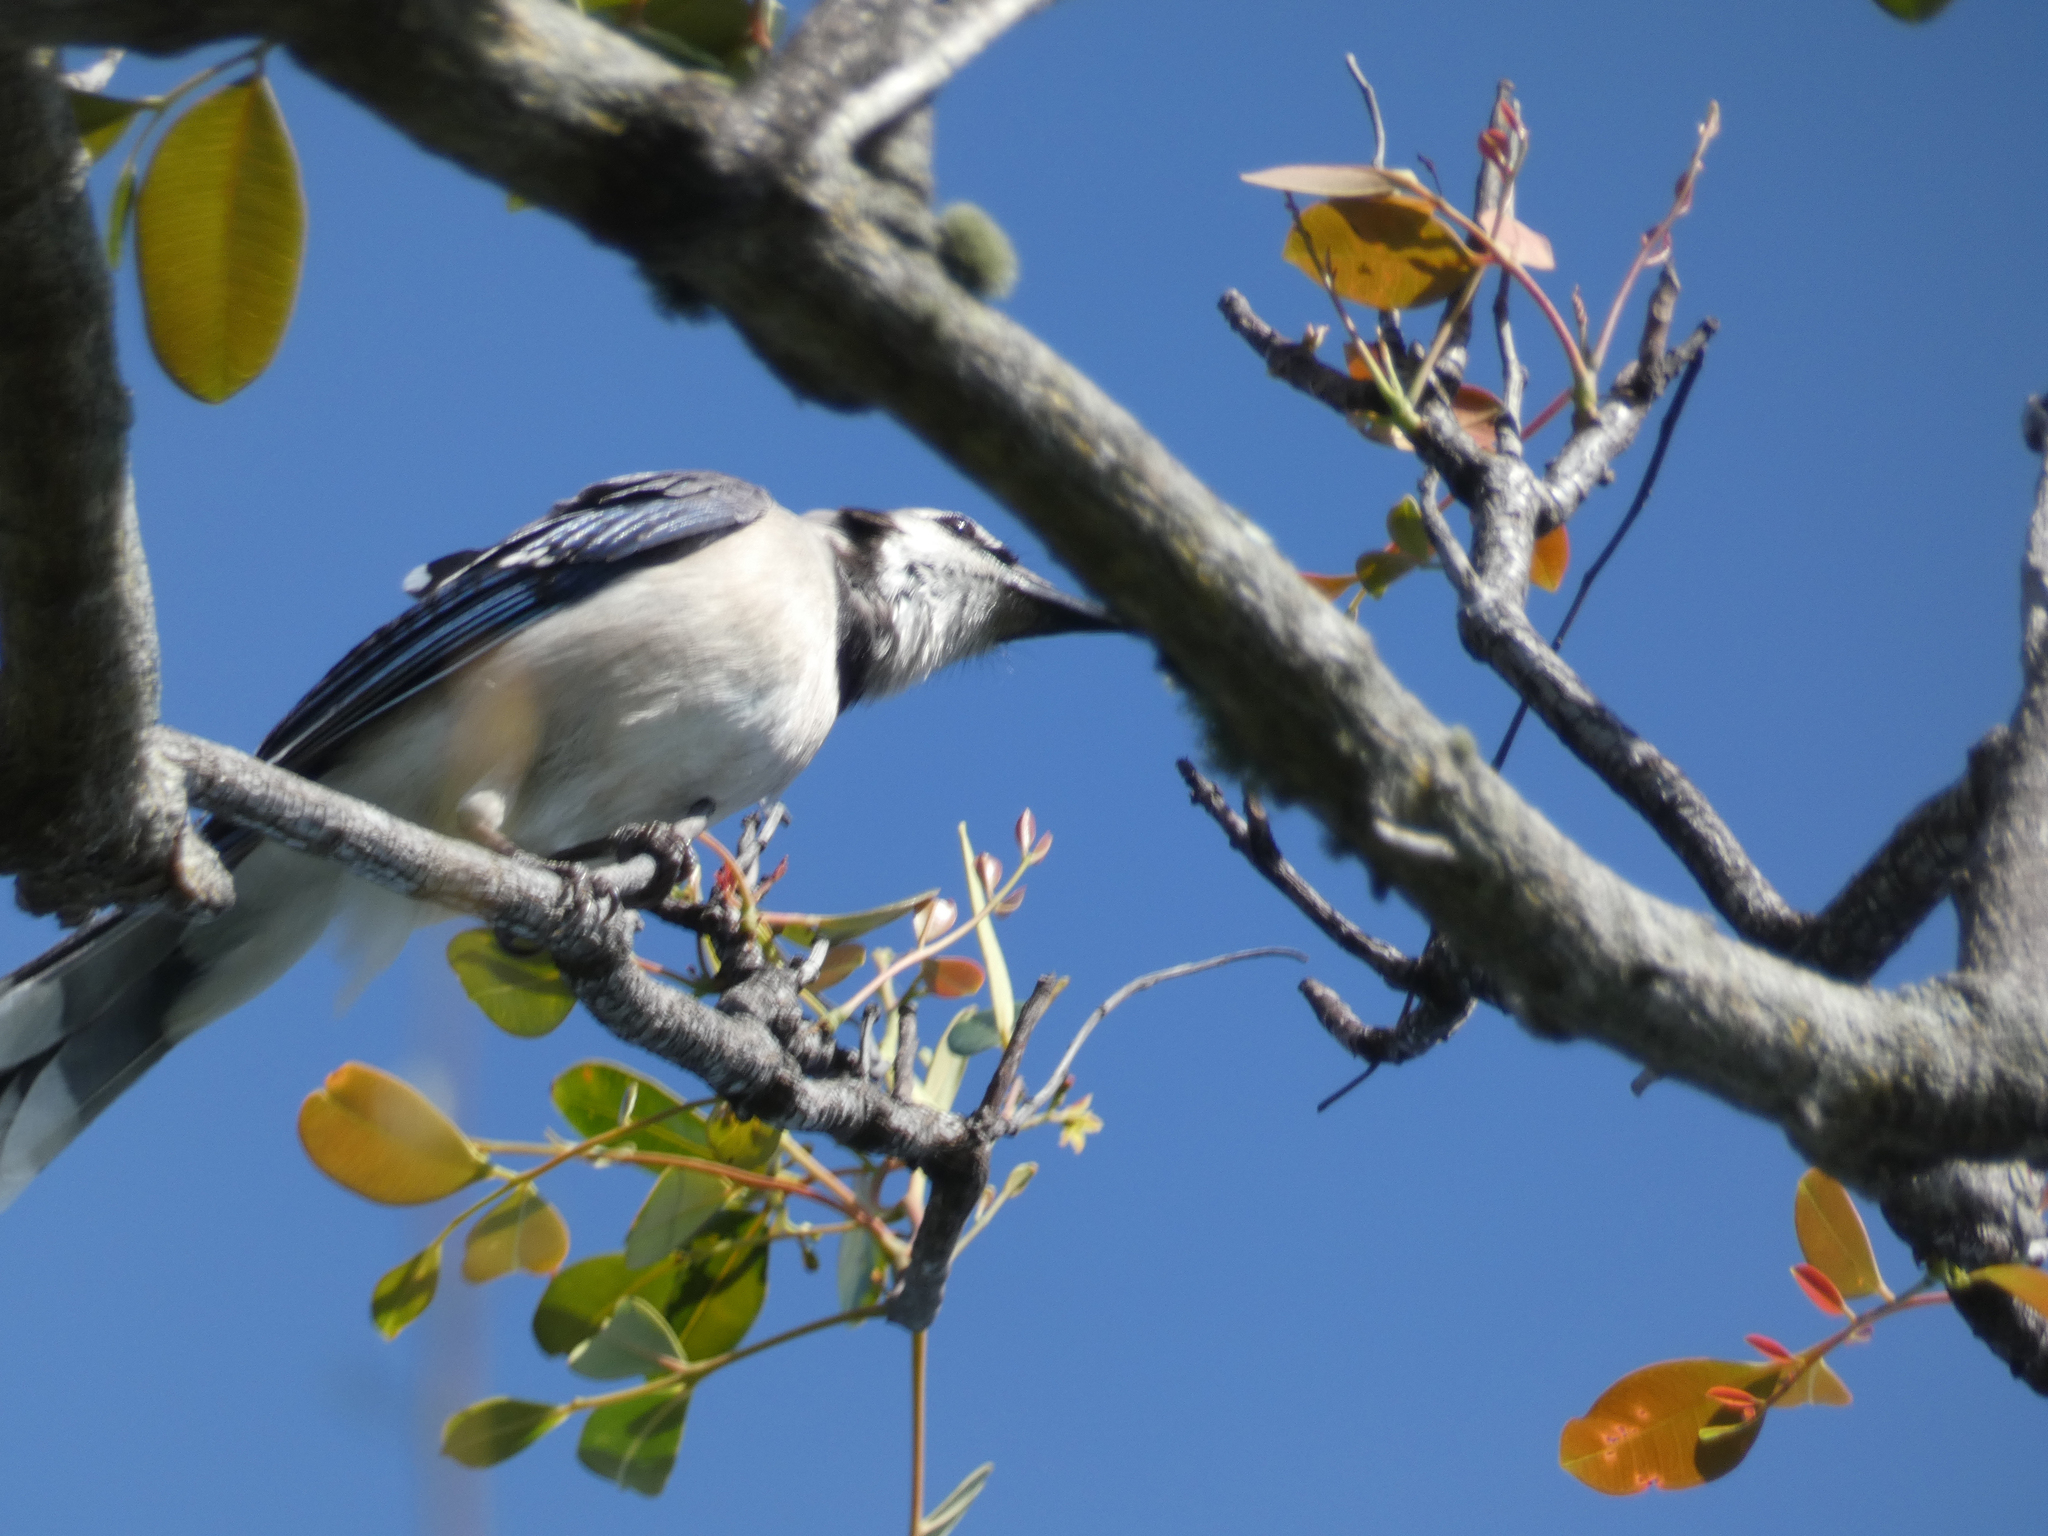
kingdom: Animalia
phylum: Chordata
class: Aves
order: Passeriformes
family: Corvidae
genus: Cyanocitta
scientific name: Cyanocitta cristata
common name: Blue jay
